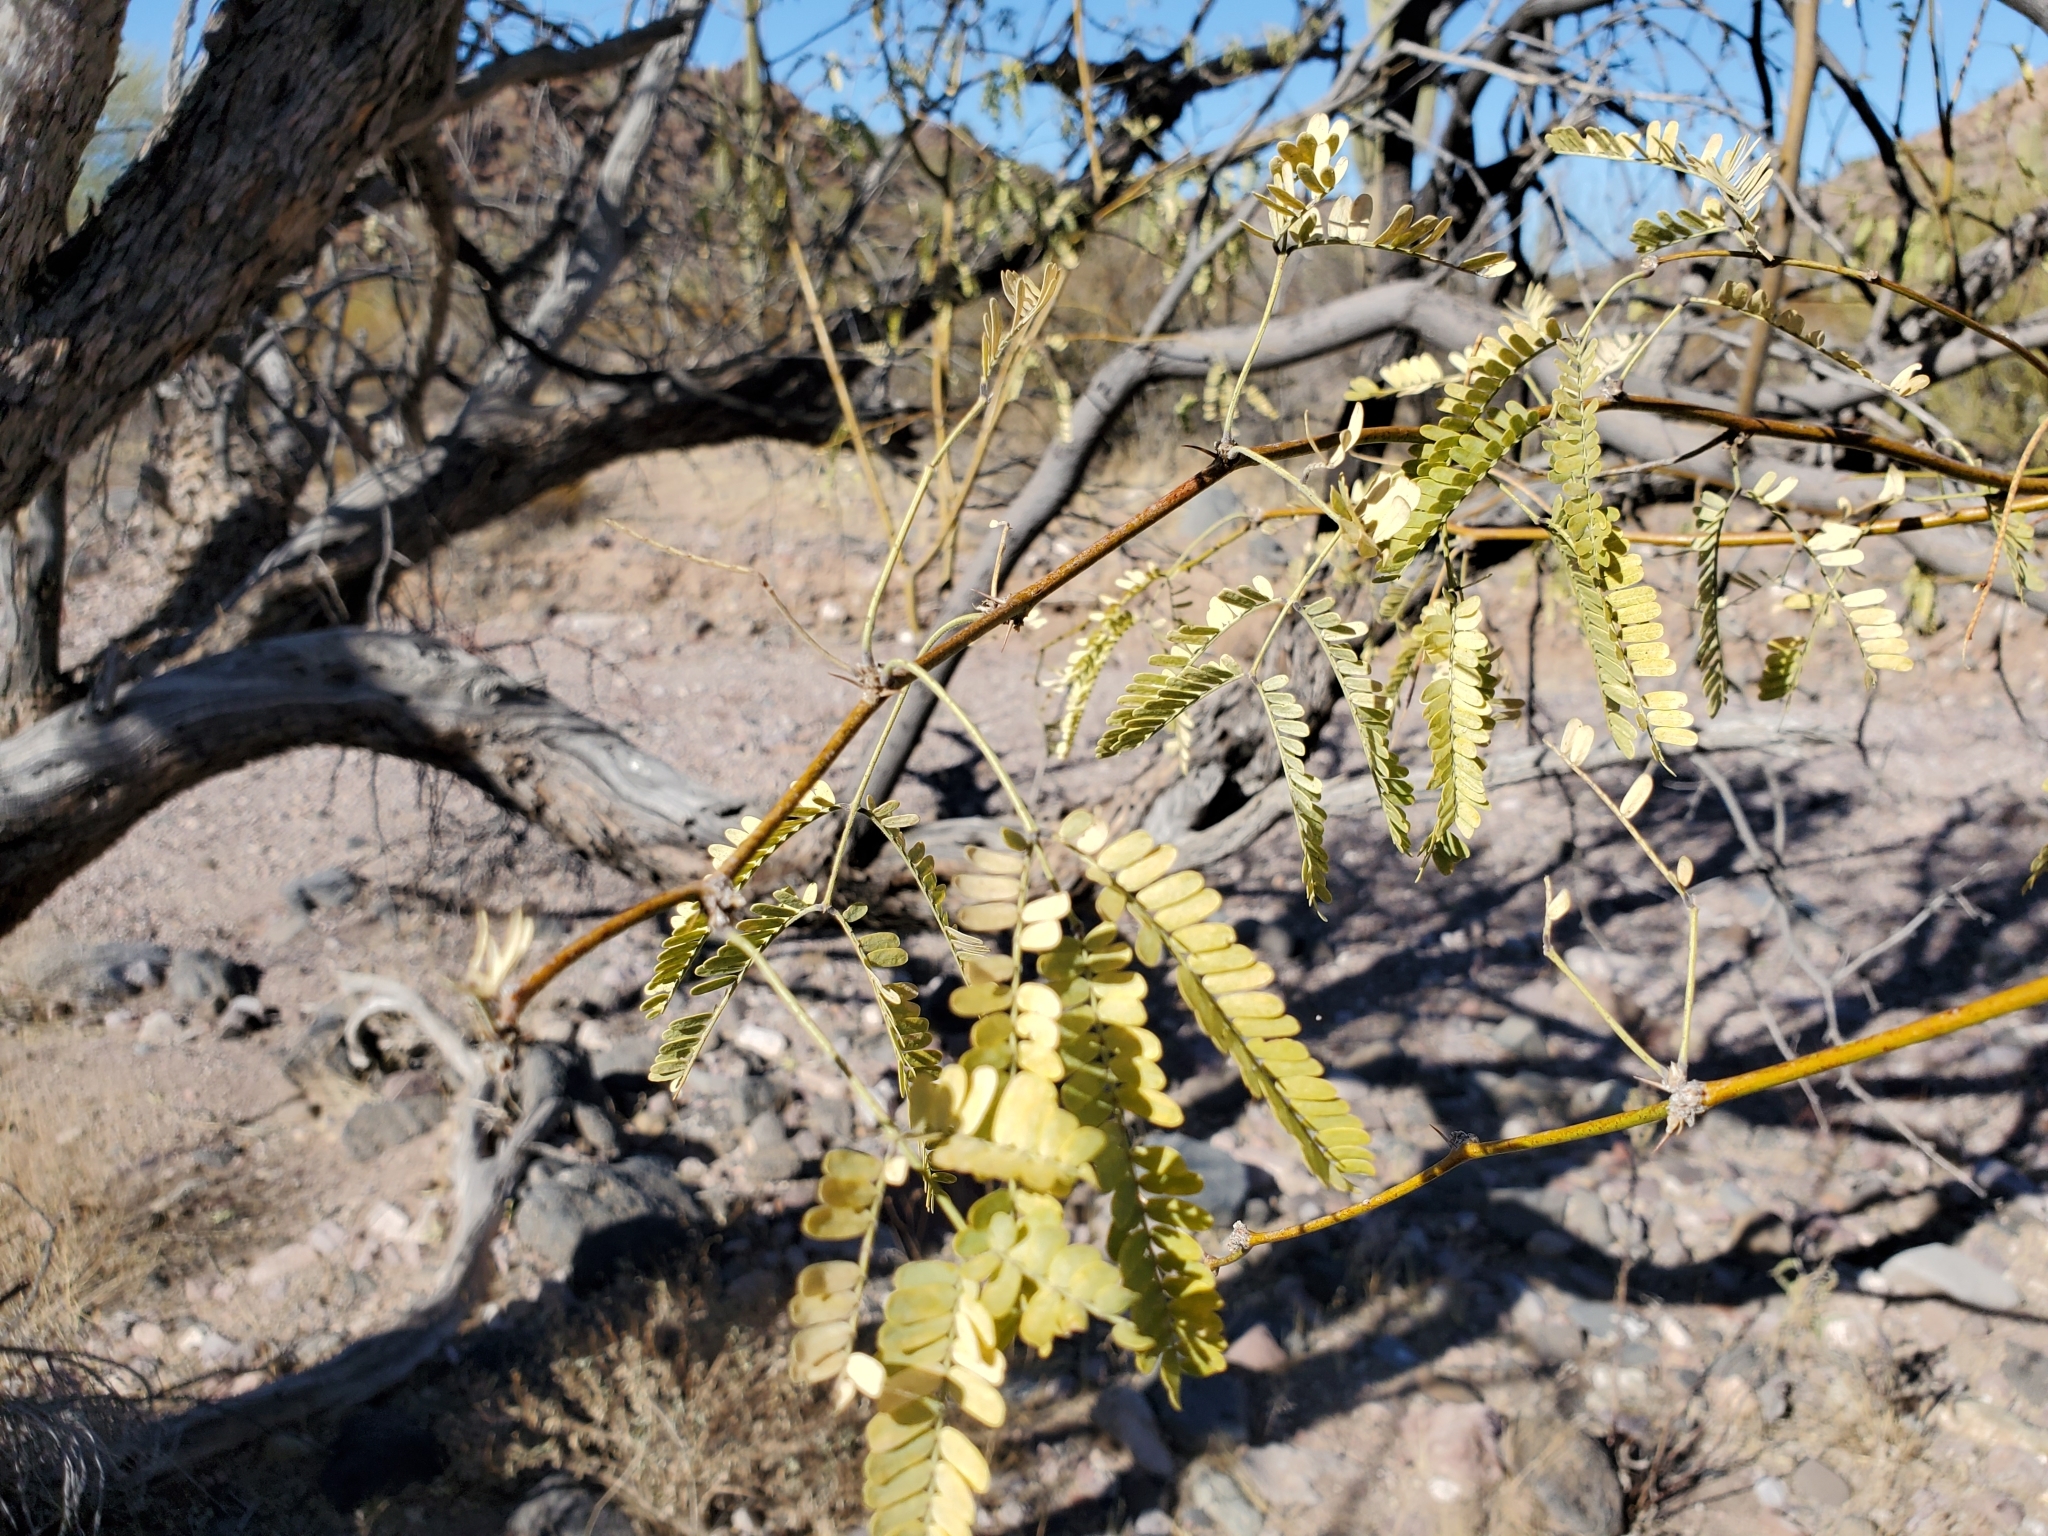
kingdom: Plantae
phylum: Tracheophyta
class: Magnoliopsida
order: Fabales
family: Fabaceae
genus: Prosopis
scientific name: Prosopis velutina
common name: Velvet mesquite
